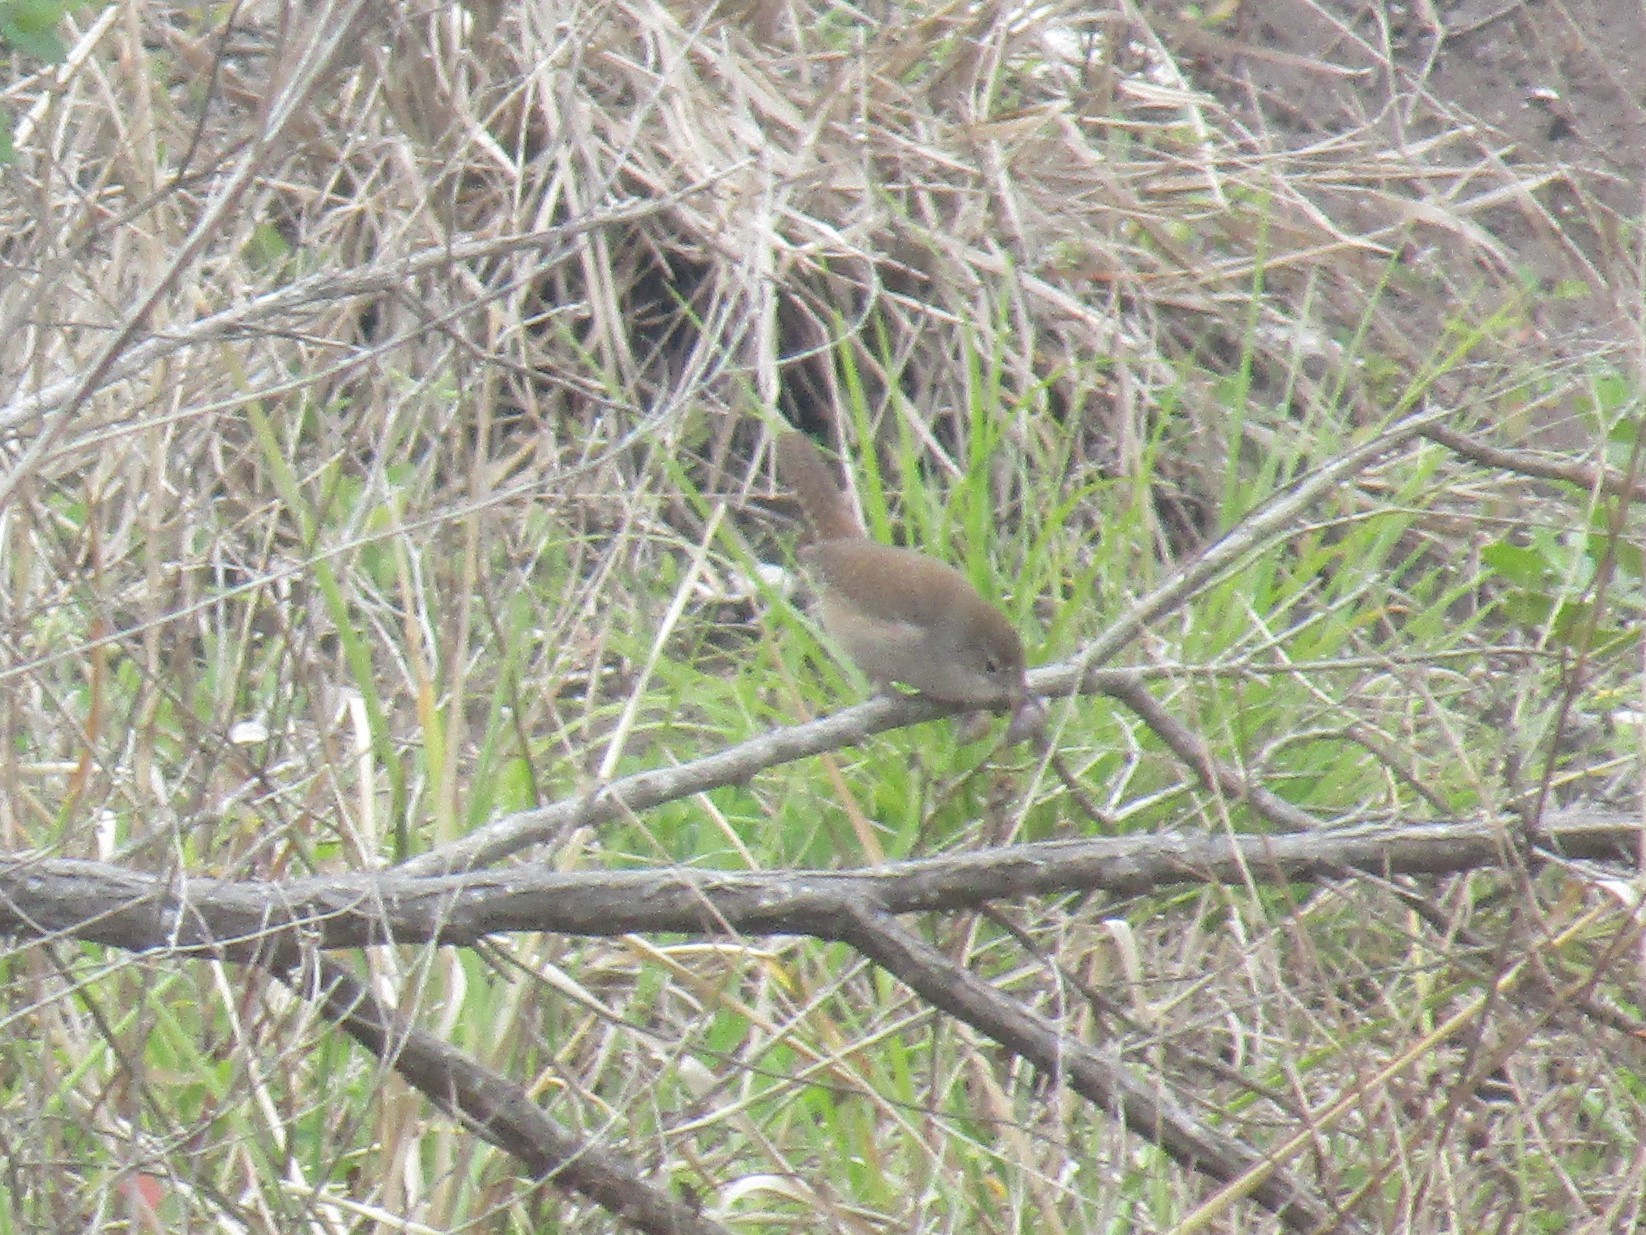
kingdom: Animalia
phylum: Chordata
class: Aves
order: Passeriformes
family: Troglodytidae
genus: Troglodytes
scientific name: Troglodytes aedon
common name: House wren
